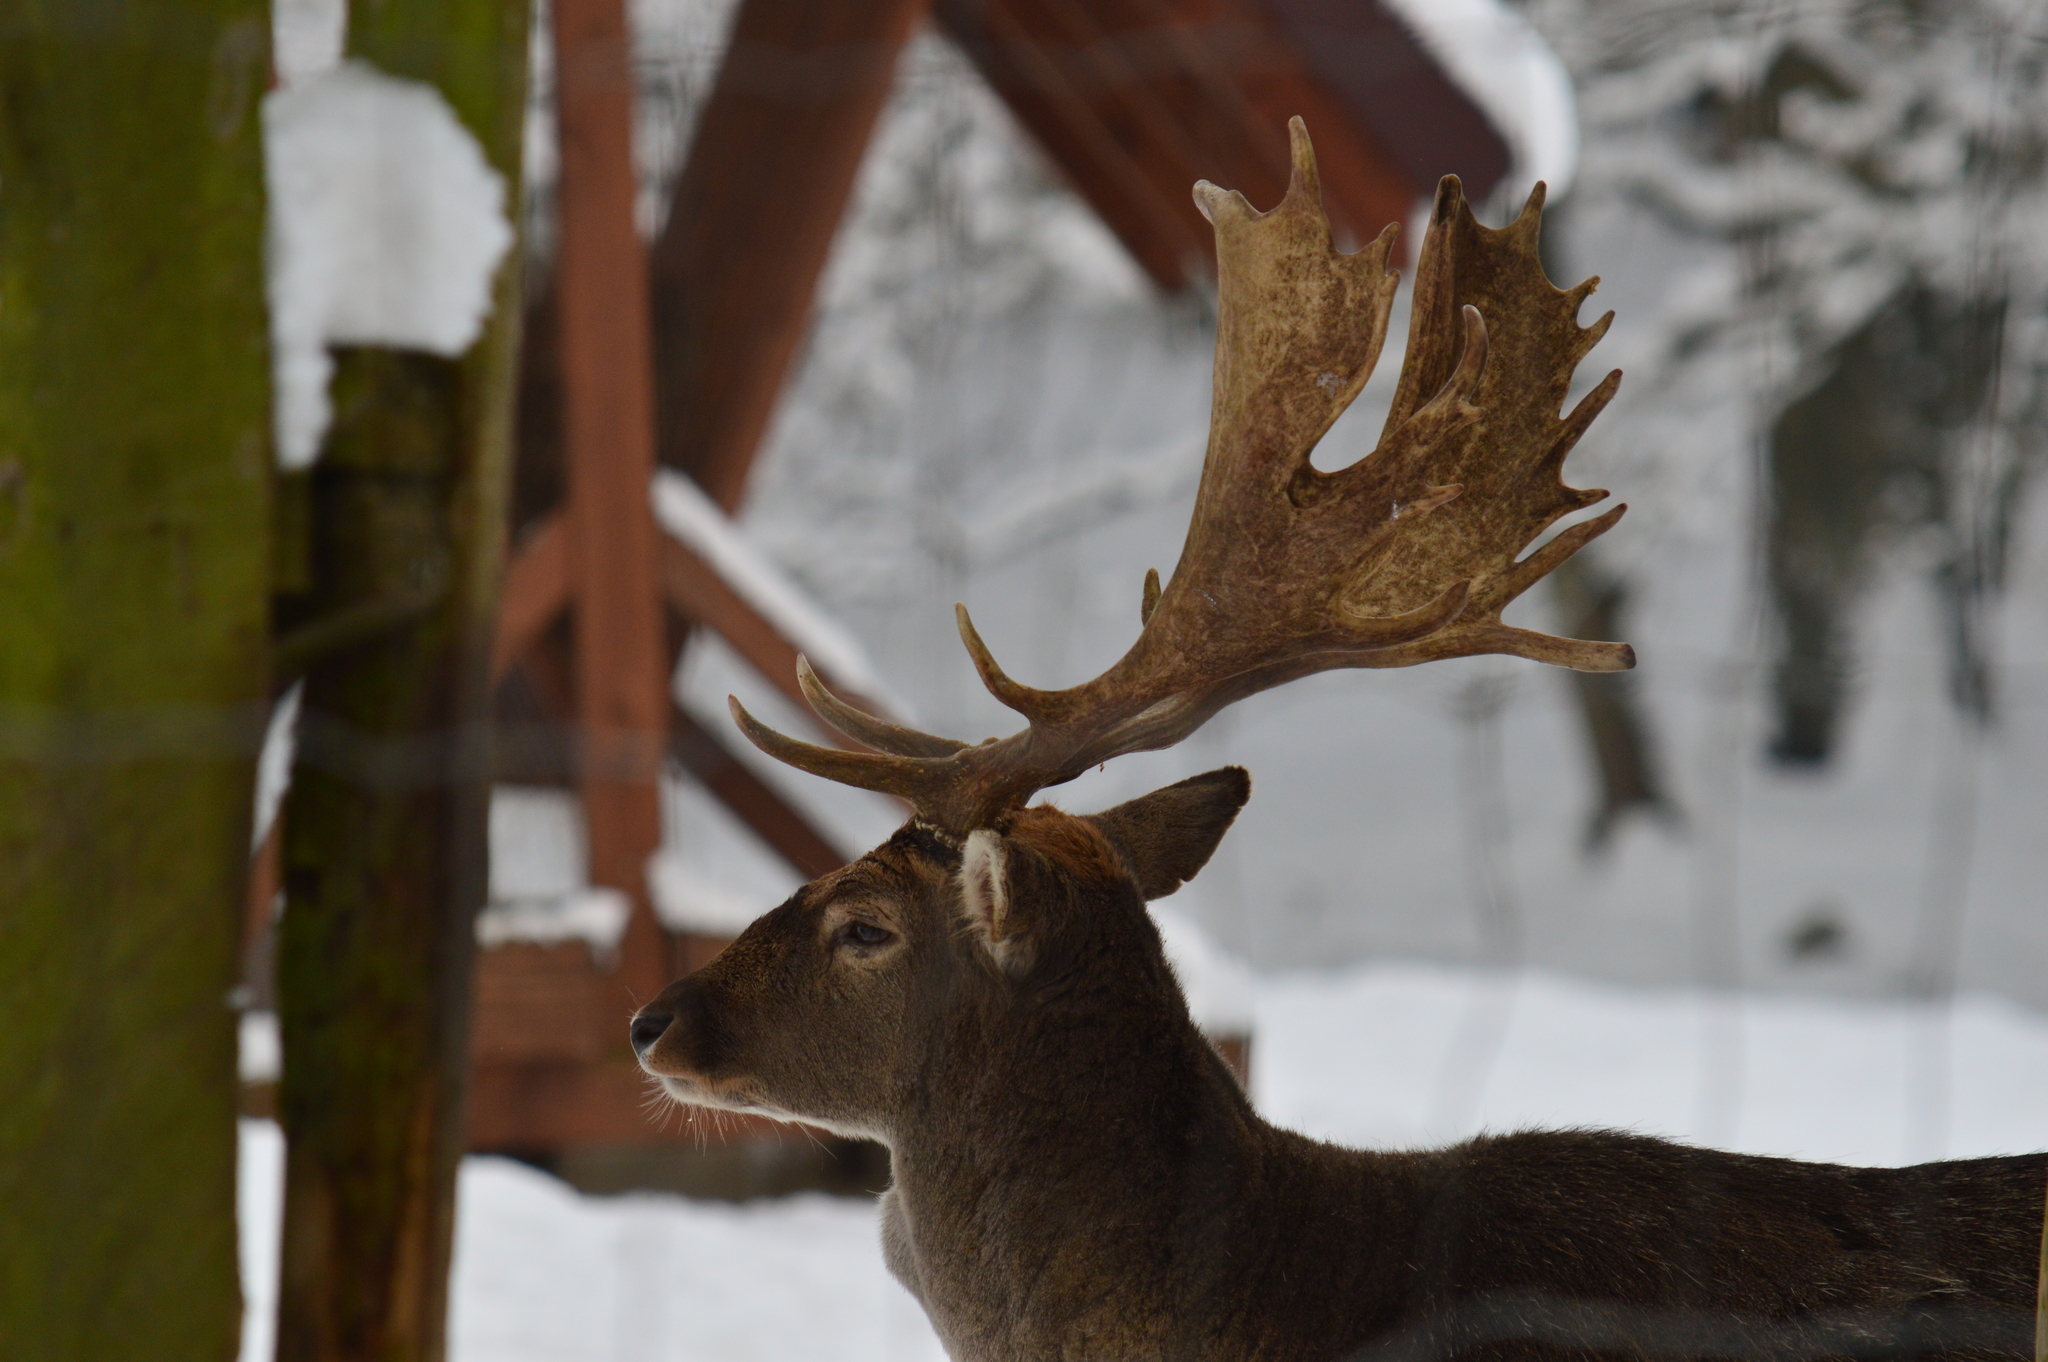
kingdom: Animalia
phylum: Chordata
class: Mammalia
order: Artiodactyla
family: Cervidae
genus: Dama
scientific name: Dama dama
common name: Fallow deer
